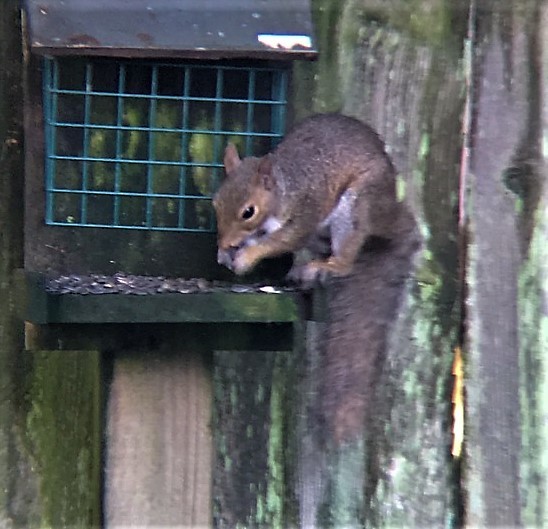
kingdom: Animalia
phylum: Chordata
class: Mammalia
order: Rodentia
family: Sciuridae
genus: Sciurus
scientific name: Sciurus carolinensis
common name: Eastern gray squirrel
